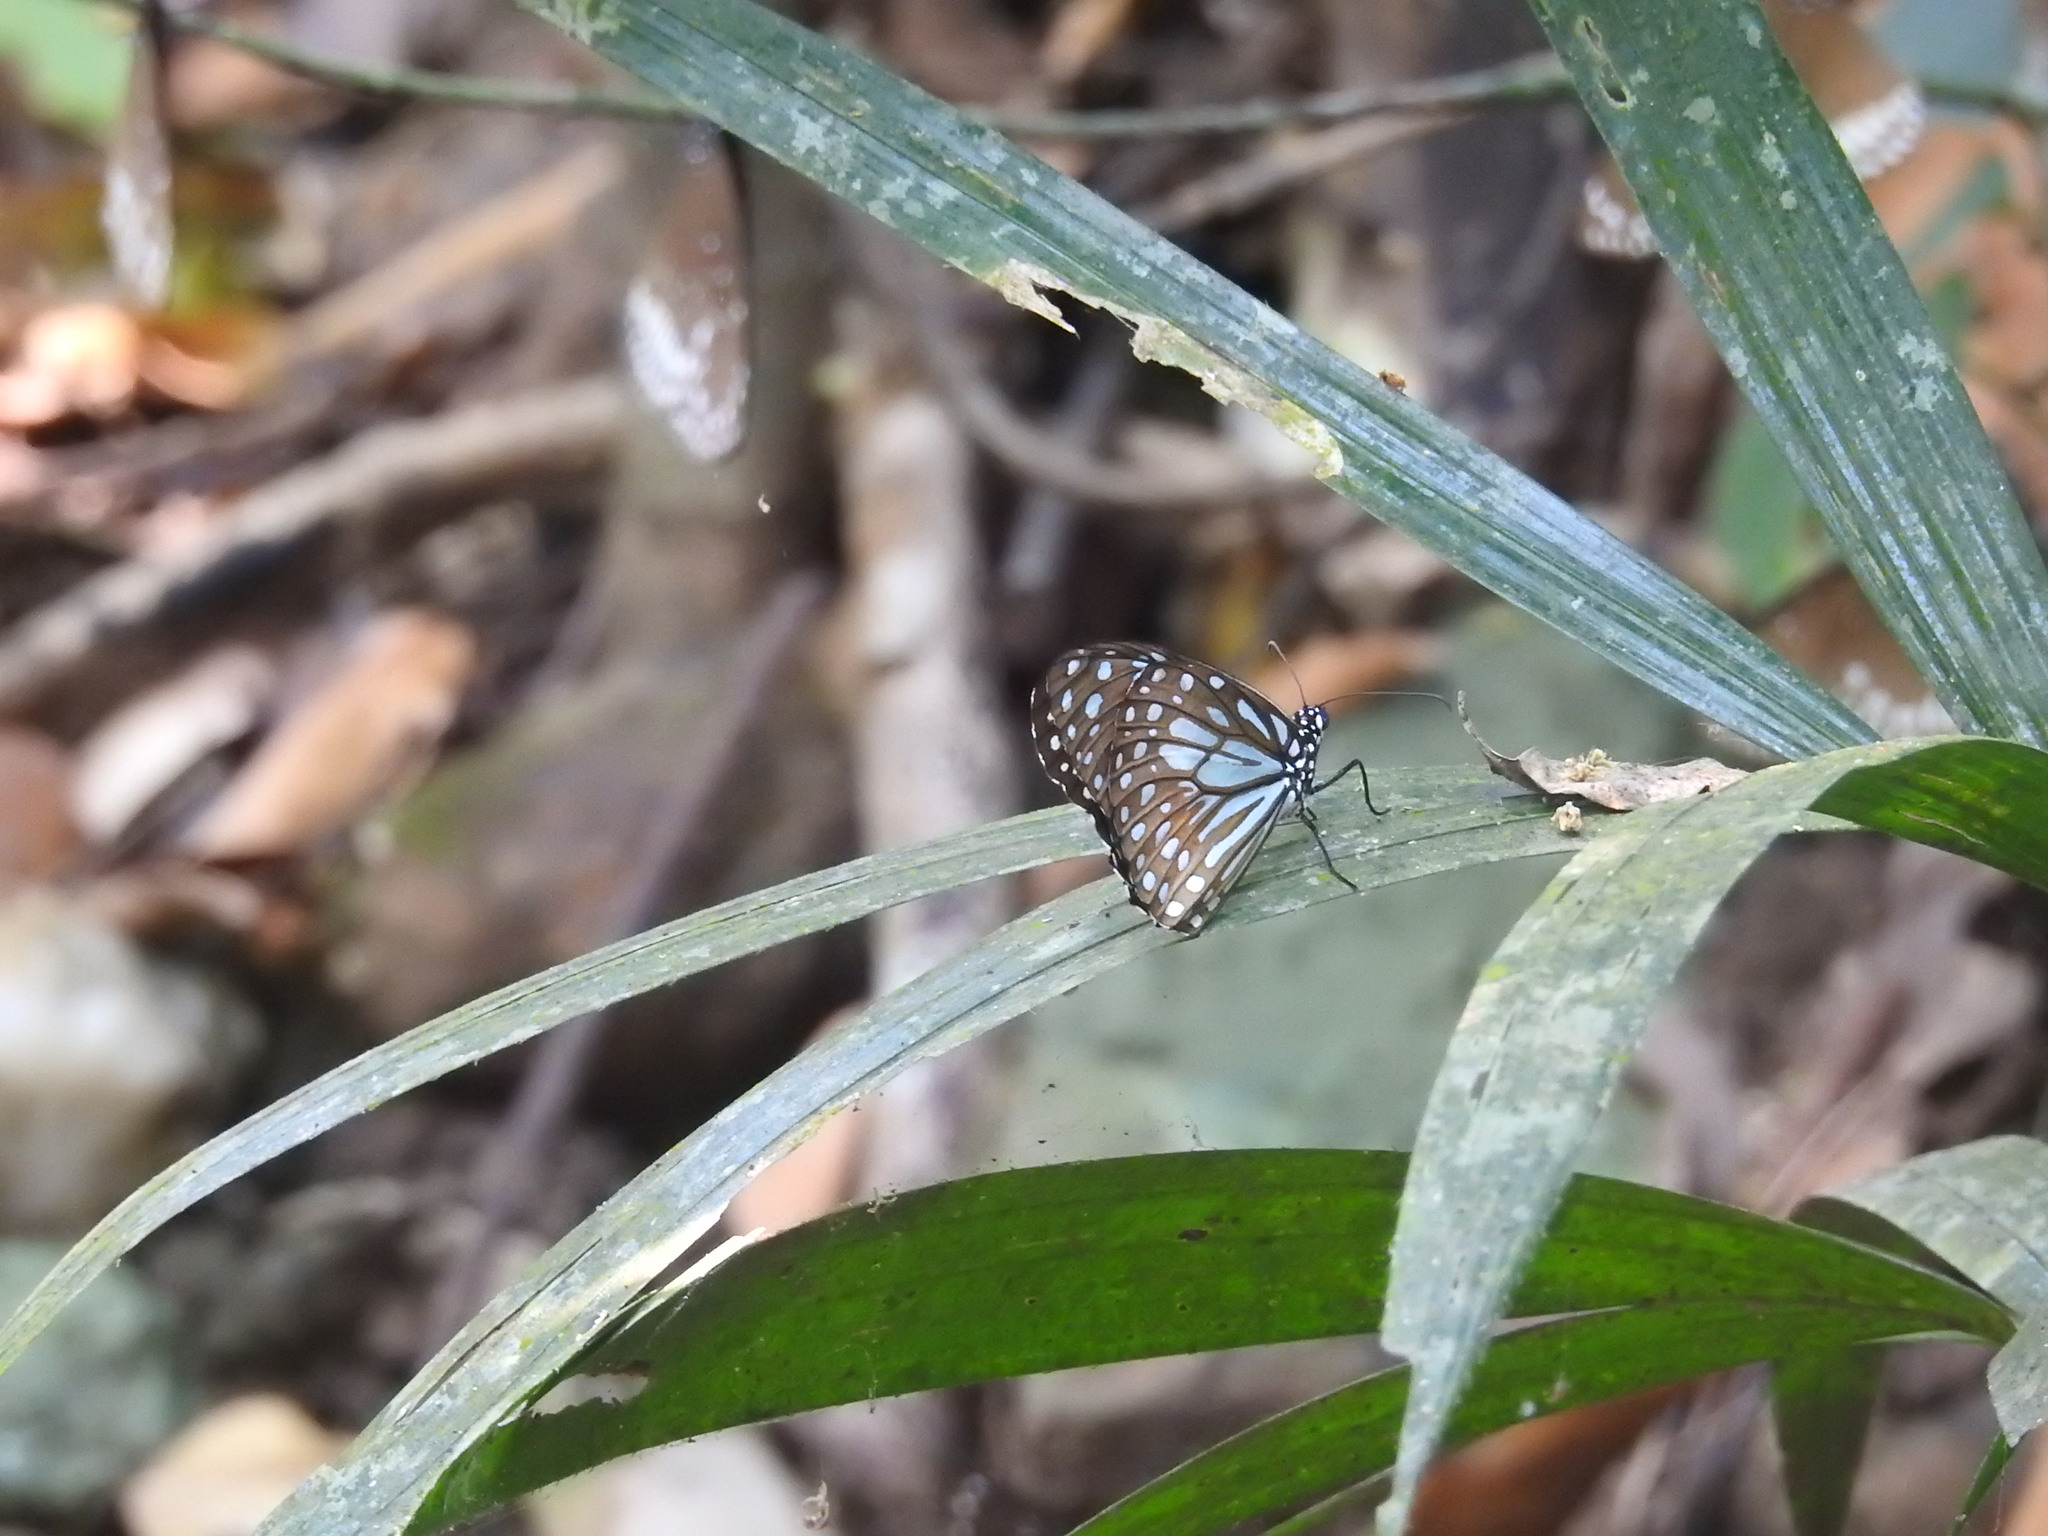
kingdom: Animalia
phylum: Arthropoda
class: Insecta
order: Lepidoptera
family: Nymphalidae
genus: Tirumala
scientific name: Tirumala limniace
